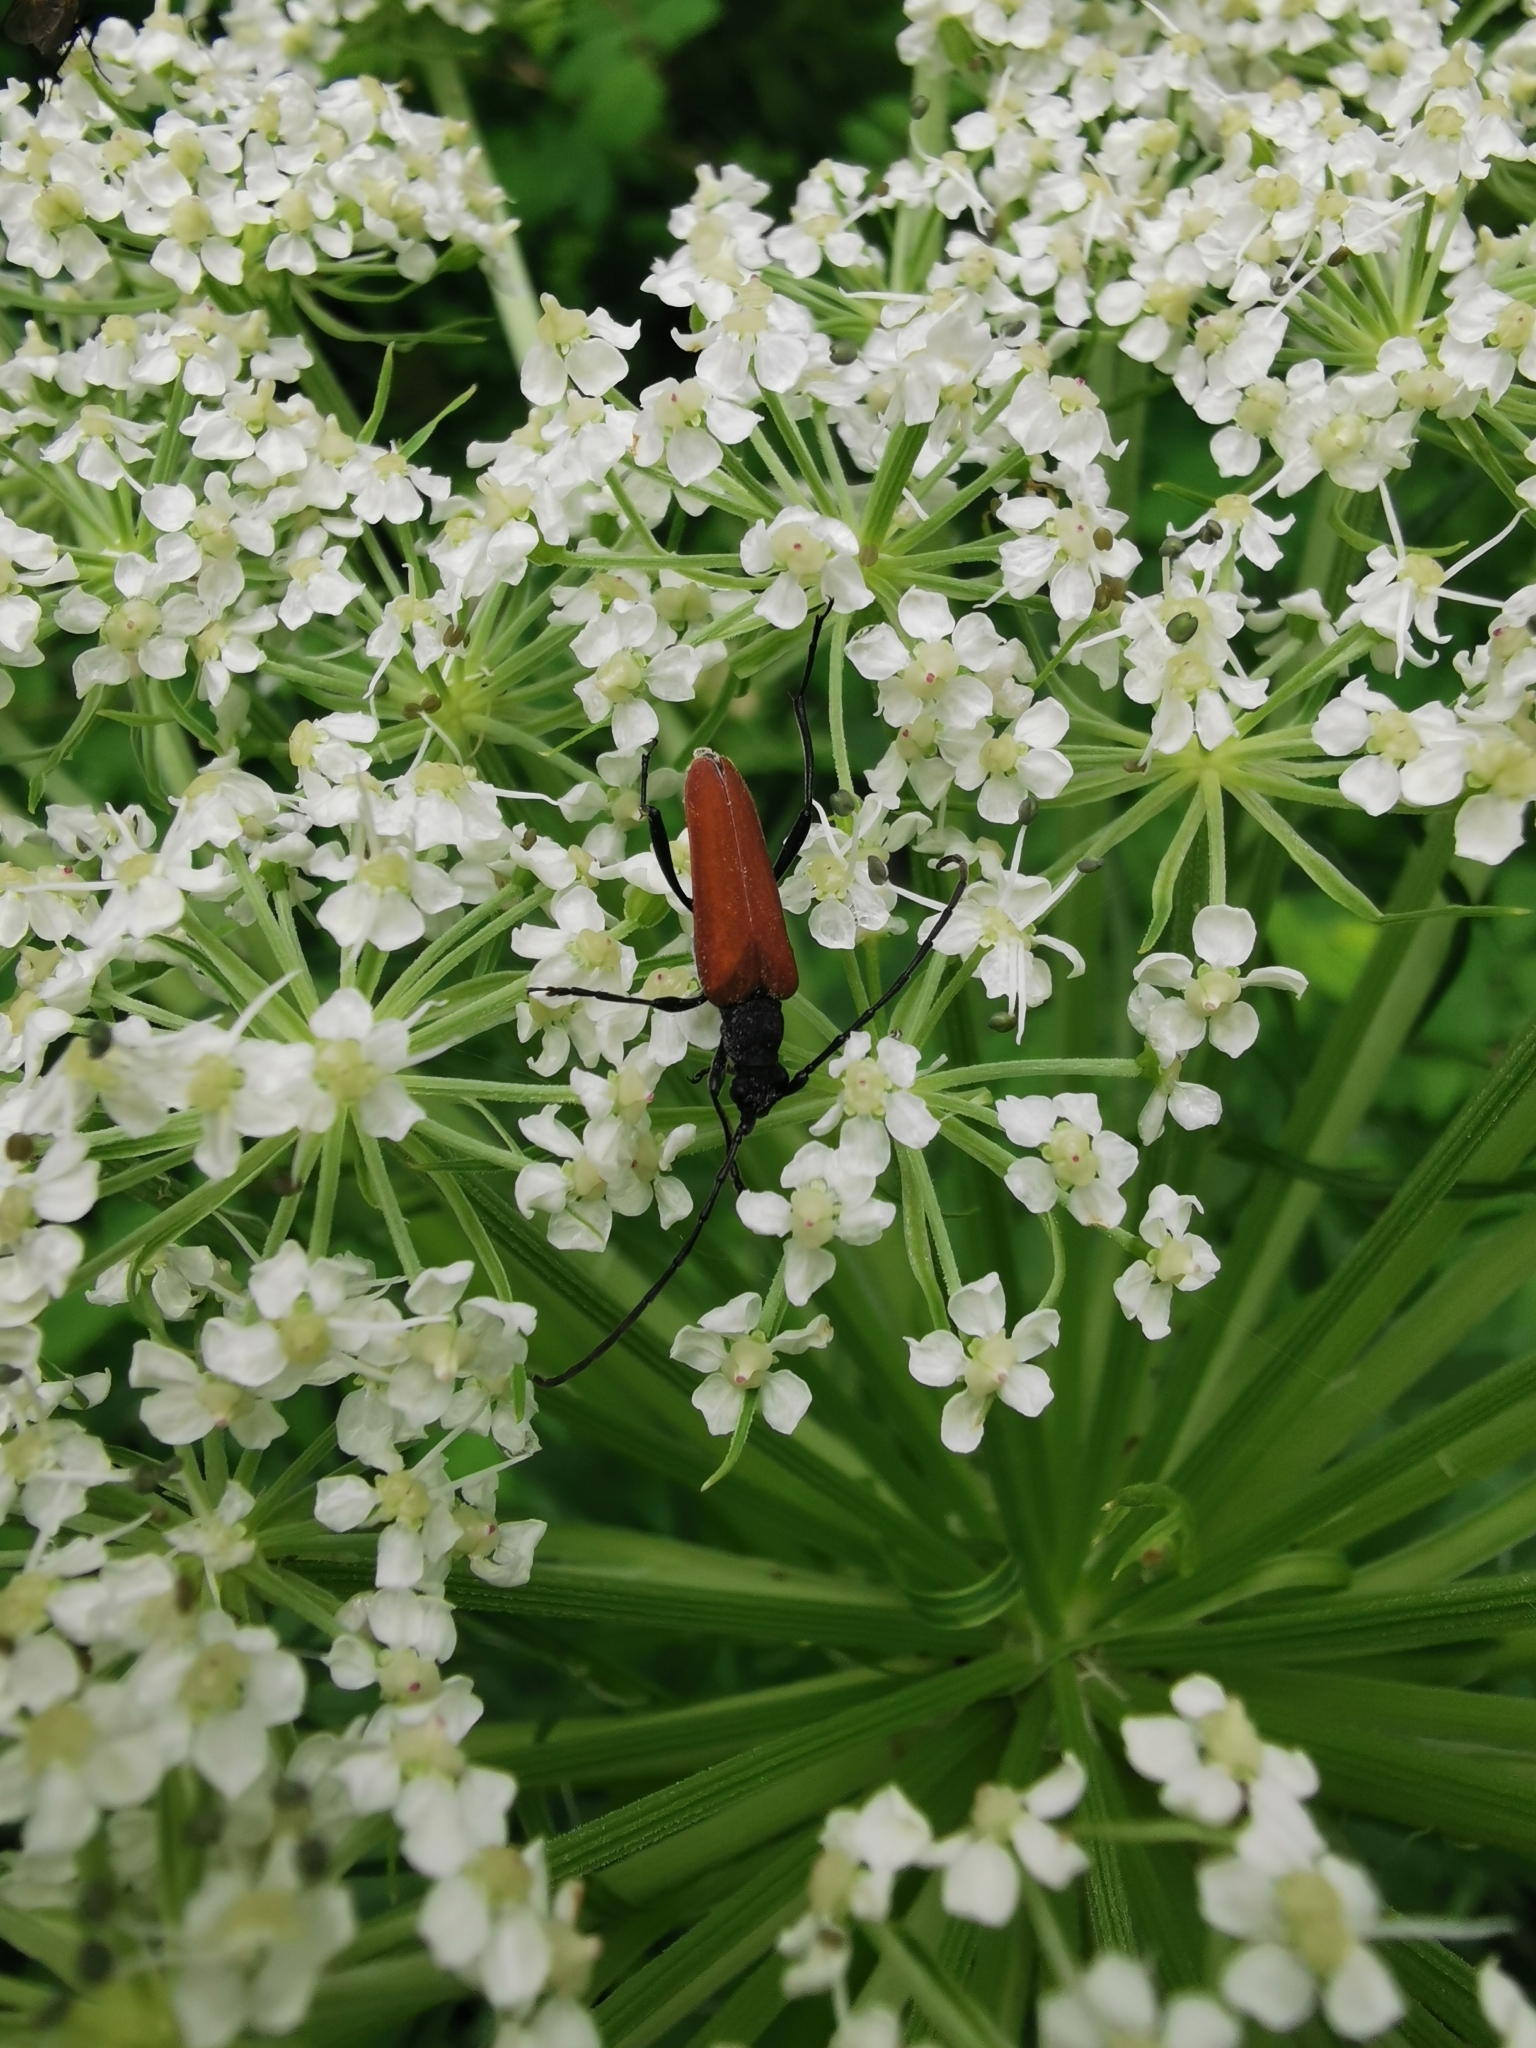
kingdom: Animalia
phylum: Arthropoda
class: Insecta
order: Coleoptera
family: Cerambycidae
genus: Nivellia
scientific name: Nivellia sanguinosa
